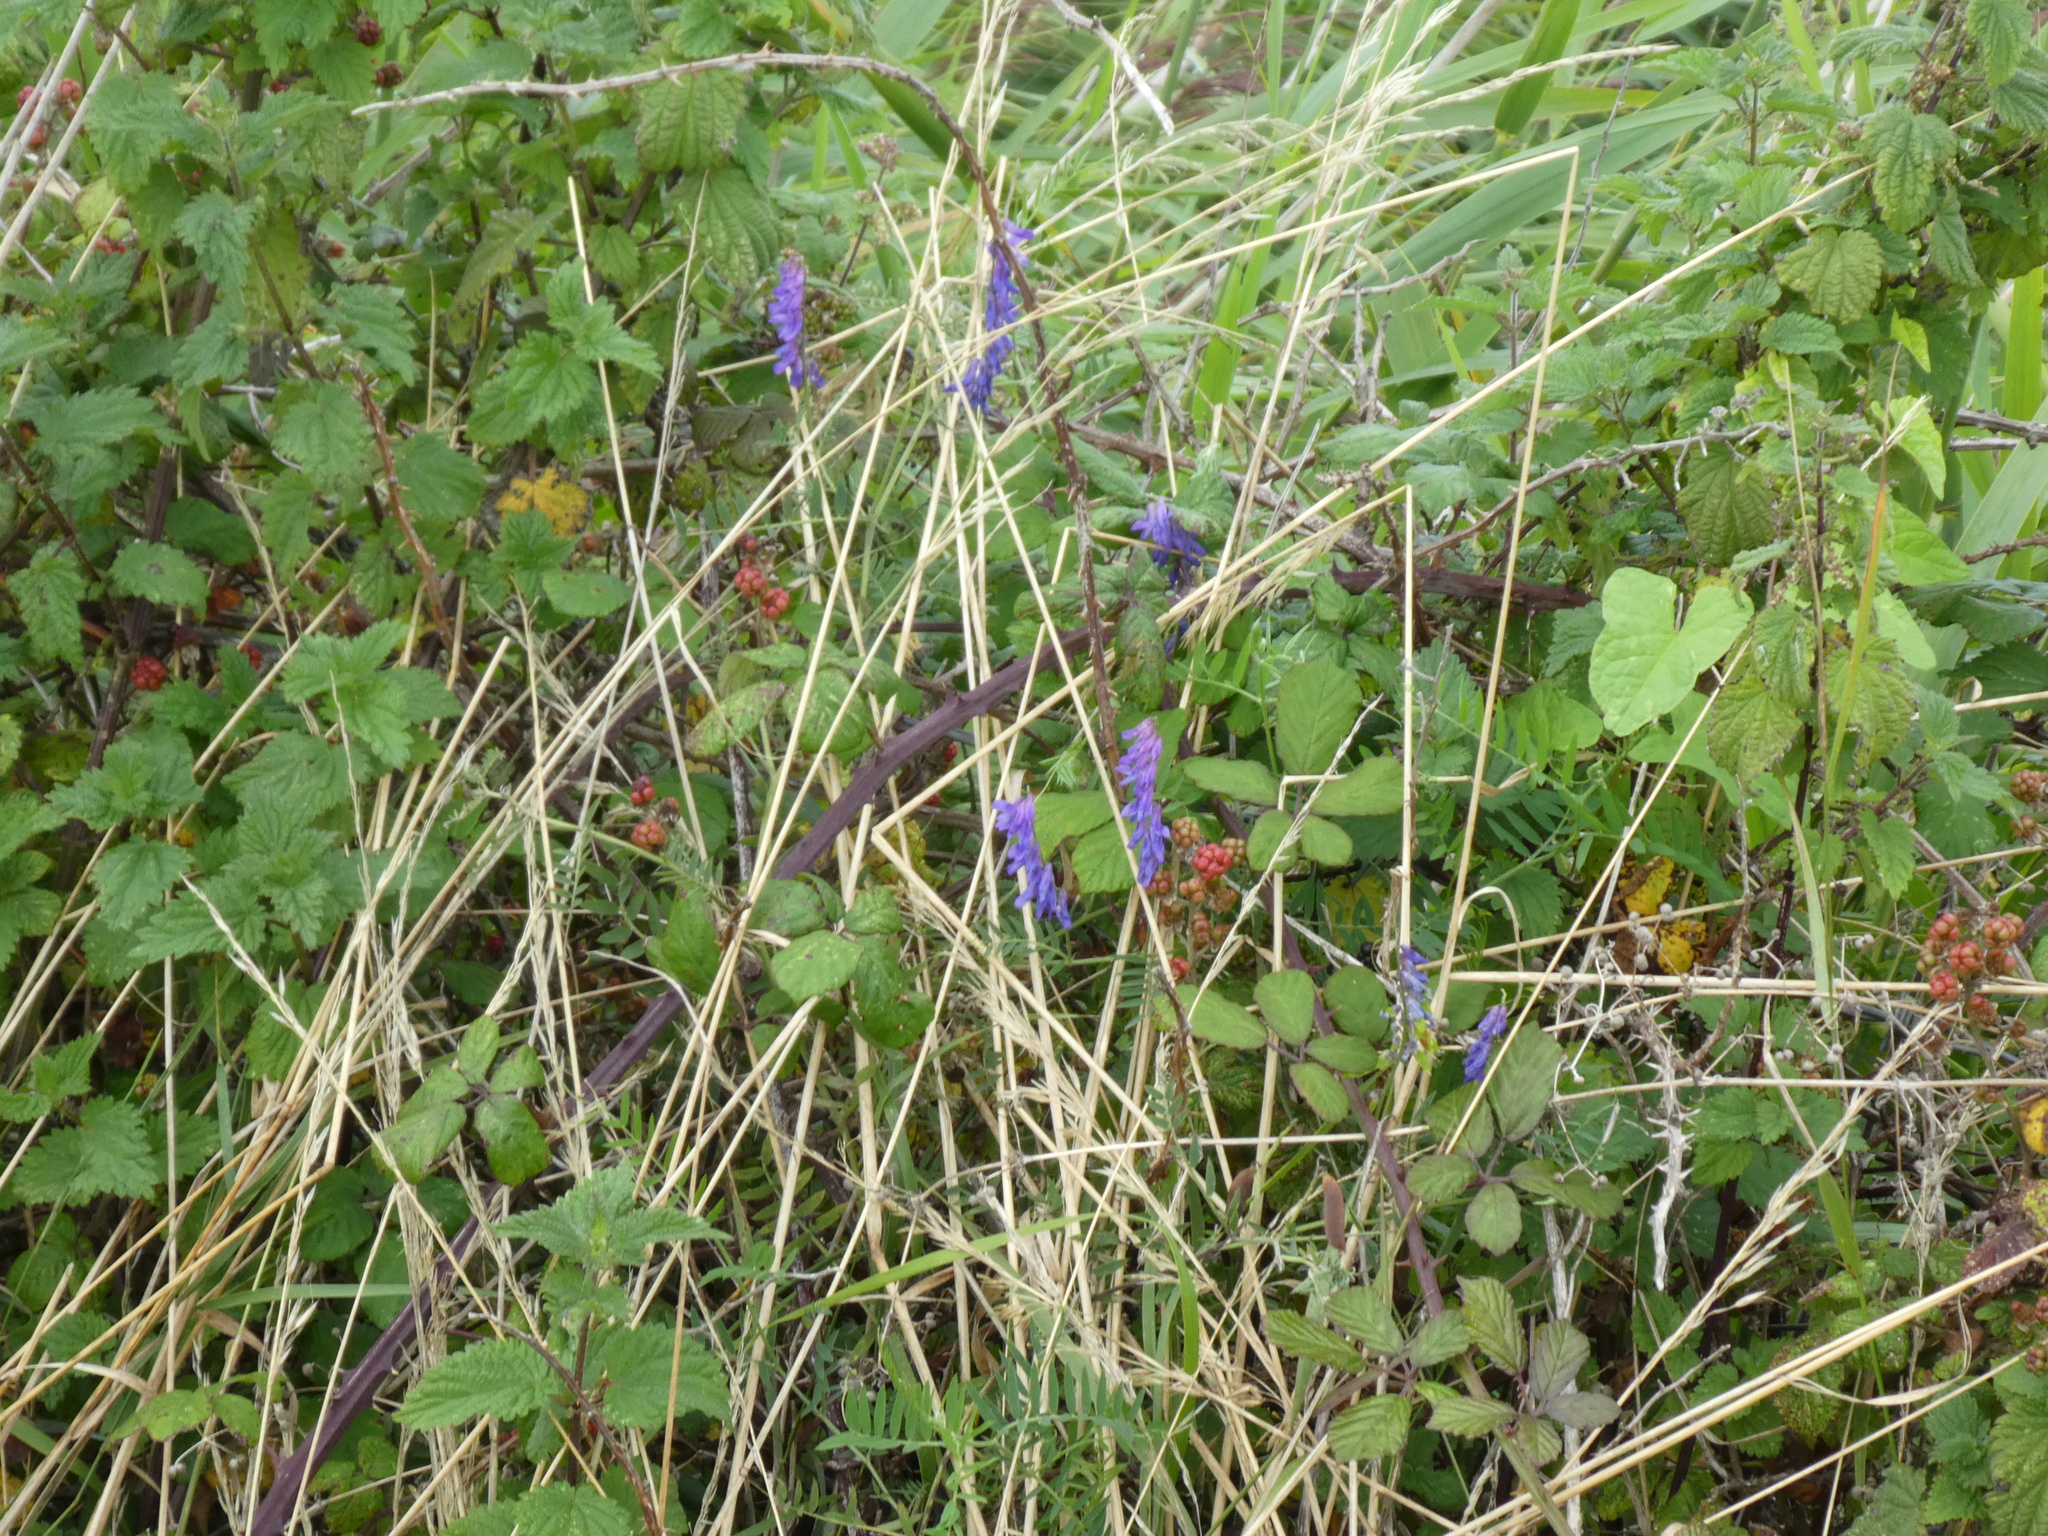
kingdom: Plantae
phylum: Tracheophyta
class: Magnoliopsida
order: Fabales
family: Fabaceae
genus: Vicia
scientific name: Vicia cracca
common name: Bird vetch
